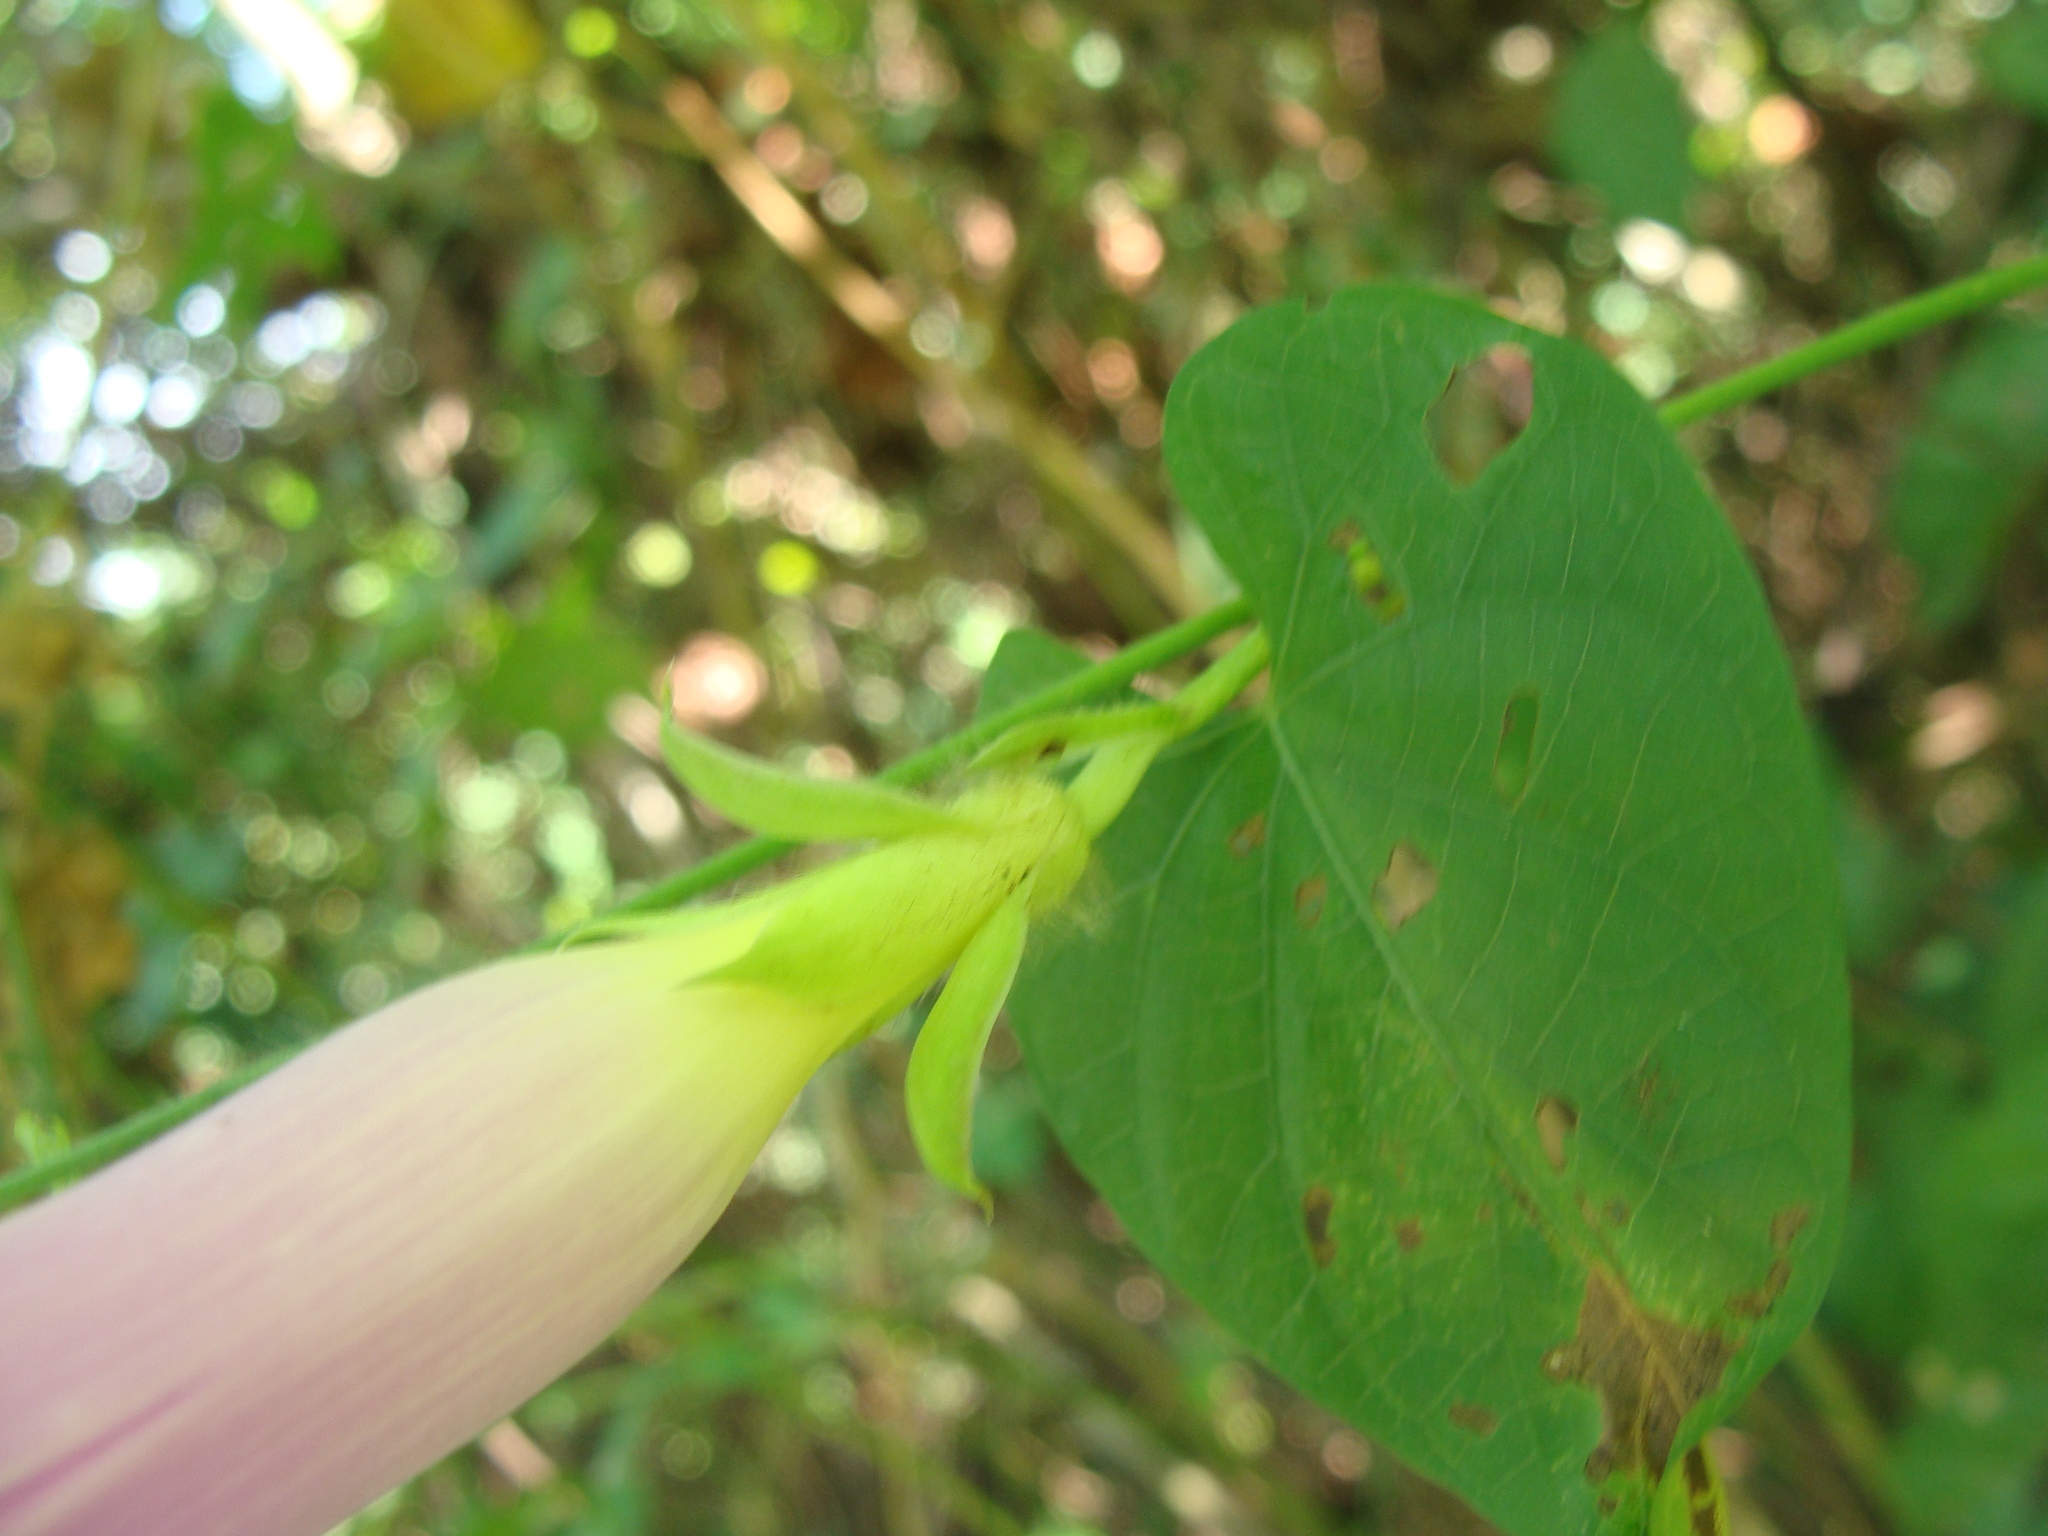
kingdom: Plantae
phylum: Tracheophyta
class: Magnoliopsida
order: Solanales
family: Convolvulaceae
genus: Ipomoea
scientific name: Ipomoea mitchelliae
